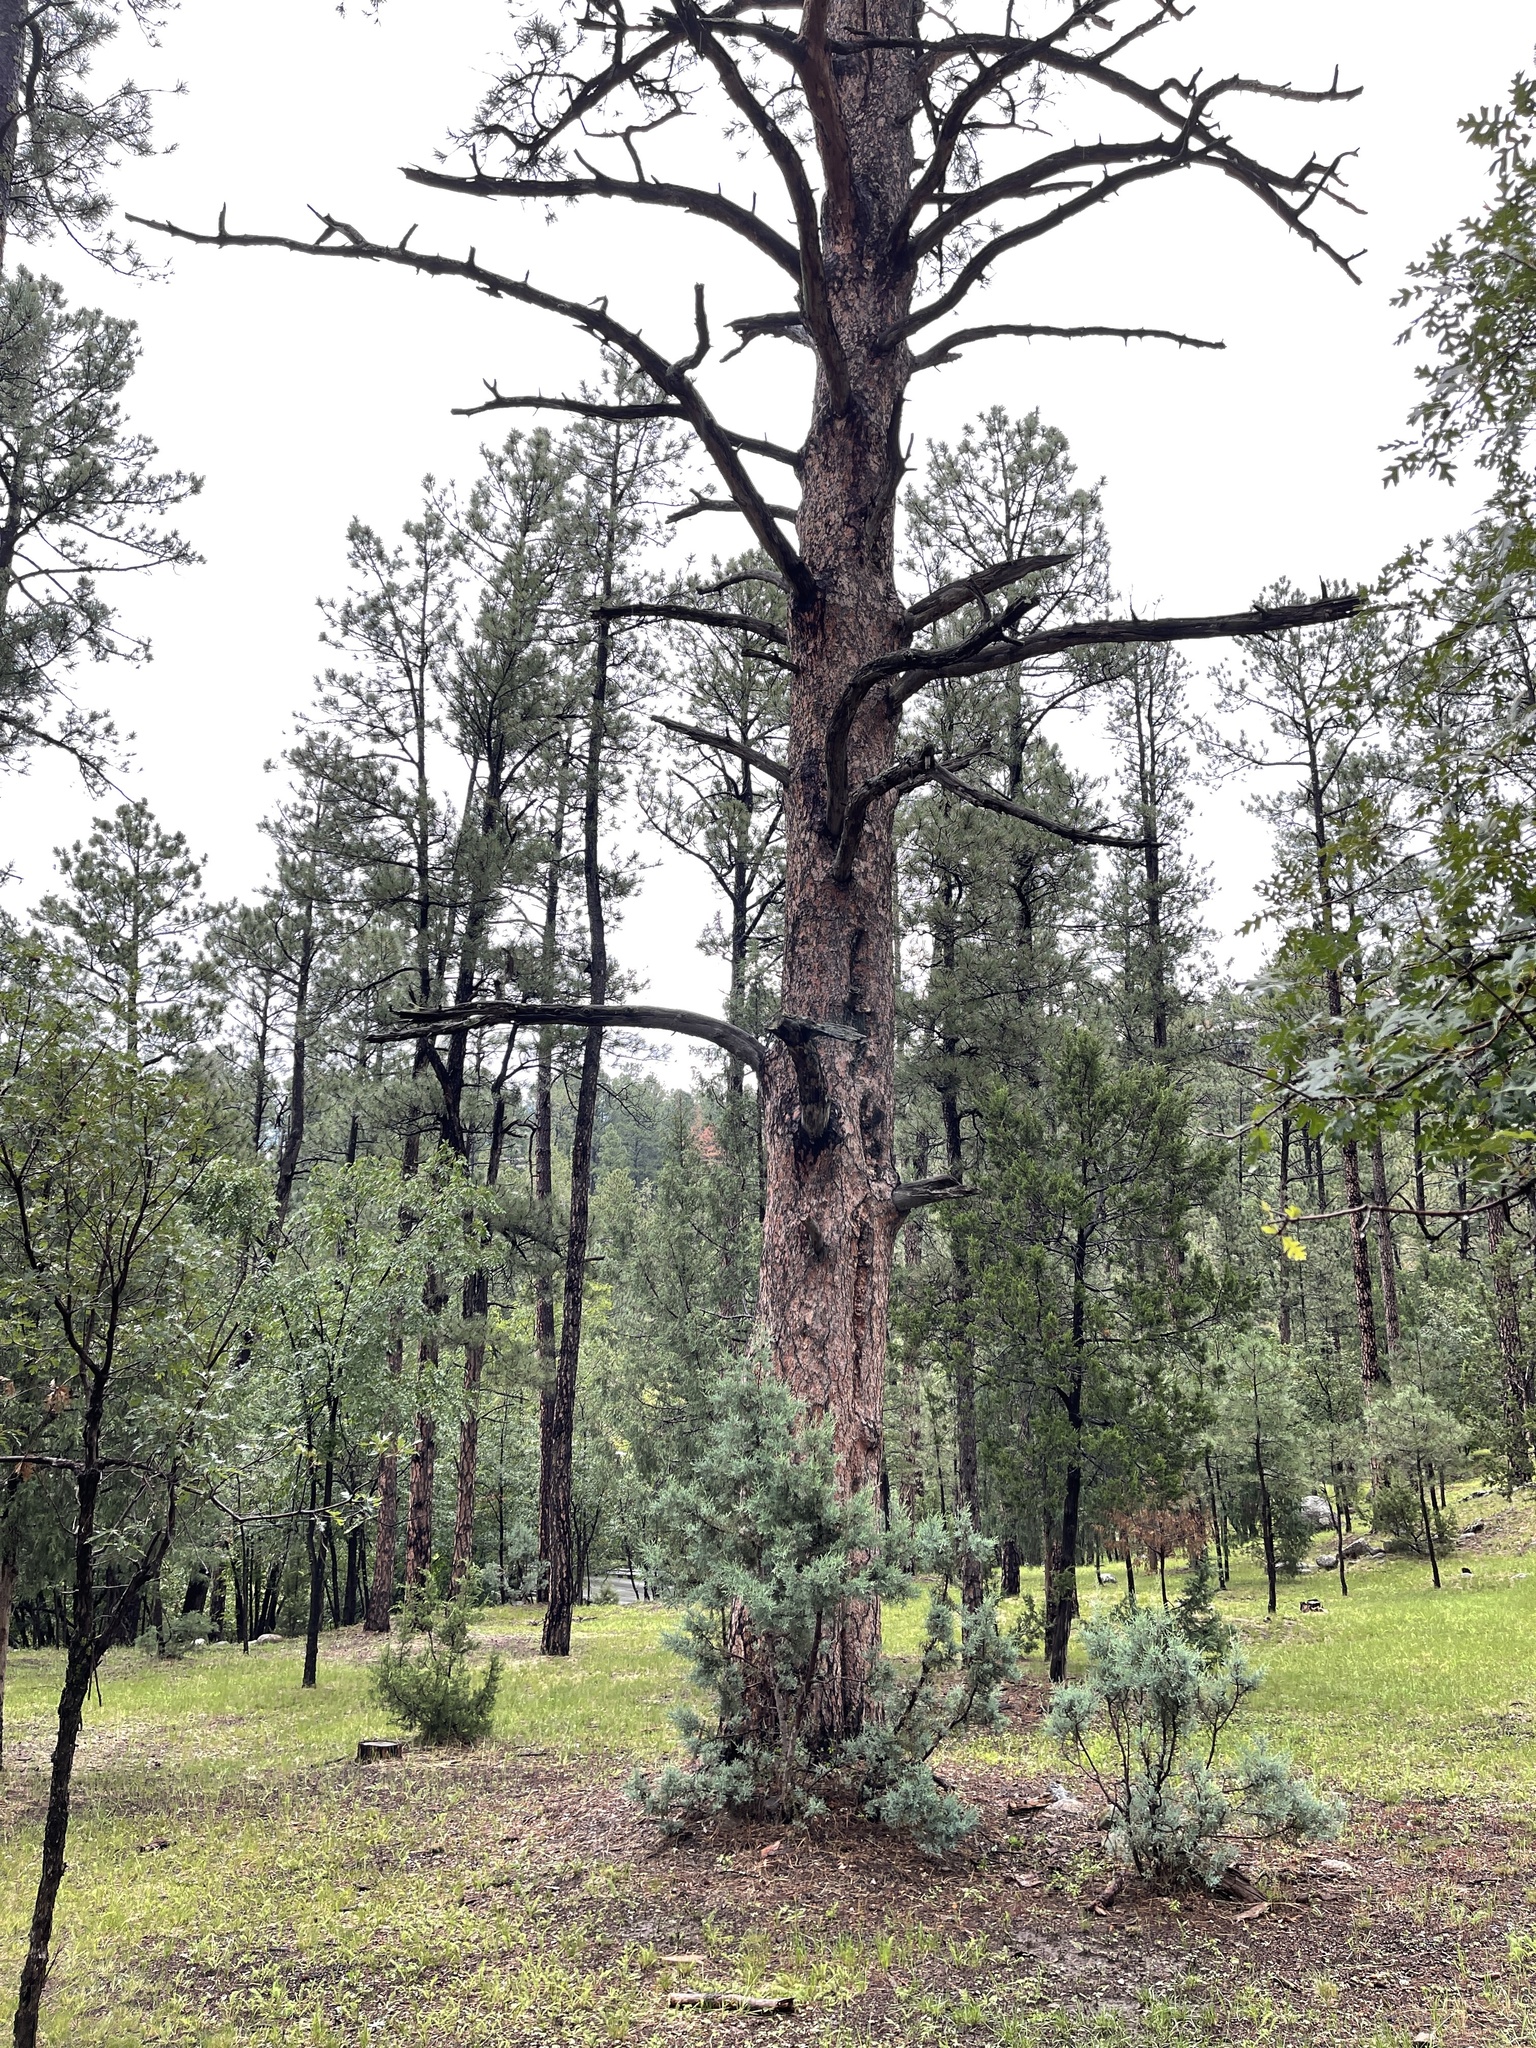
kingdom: Plantae
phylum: Tracheophyta
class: Pinopsida
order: Pinales
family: Pinaceae
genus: Pinus
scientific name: Pinus ponderosa
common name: Western yellow-pine
